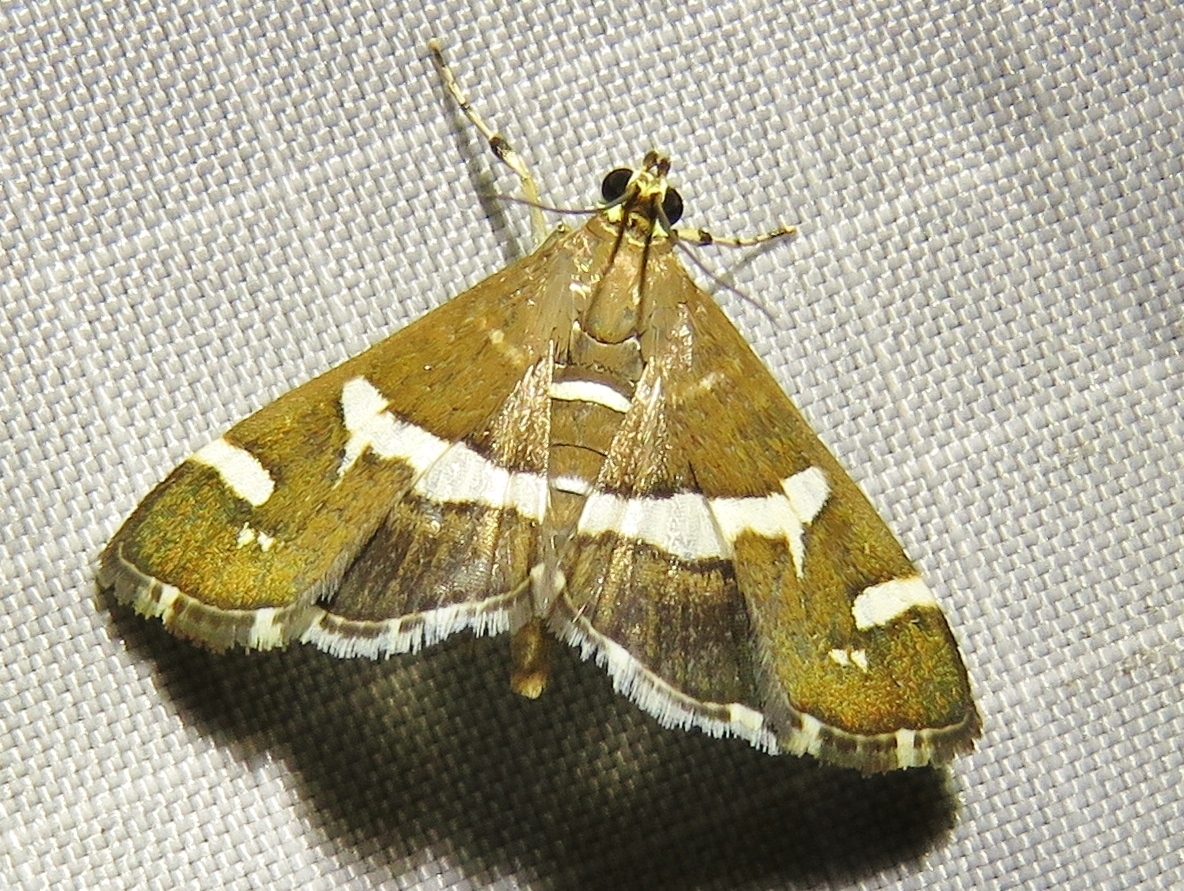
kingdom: Animalia
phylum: Arthropoda
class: Insecta
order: Lepidoptera
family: Crambidae
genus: Spoladea
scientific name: Spoladea recurvalis
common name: Beet webworm moth
